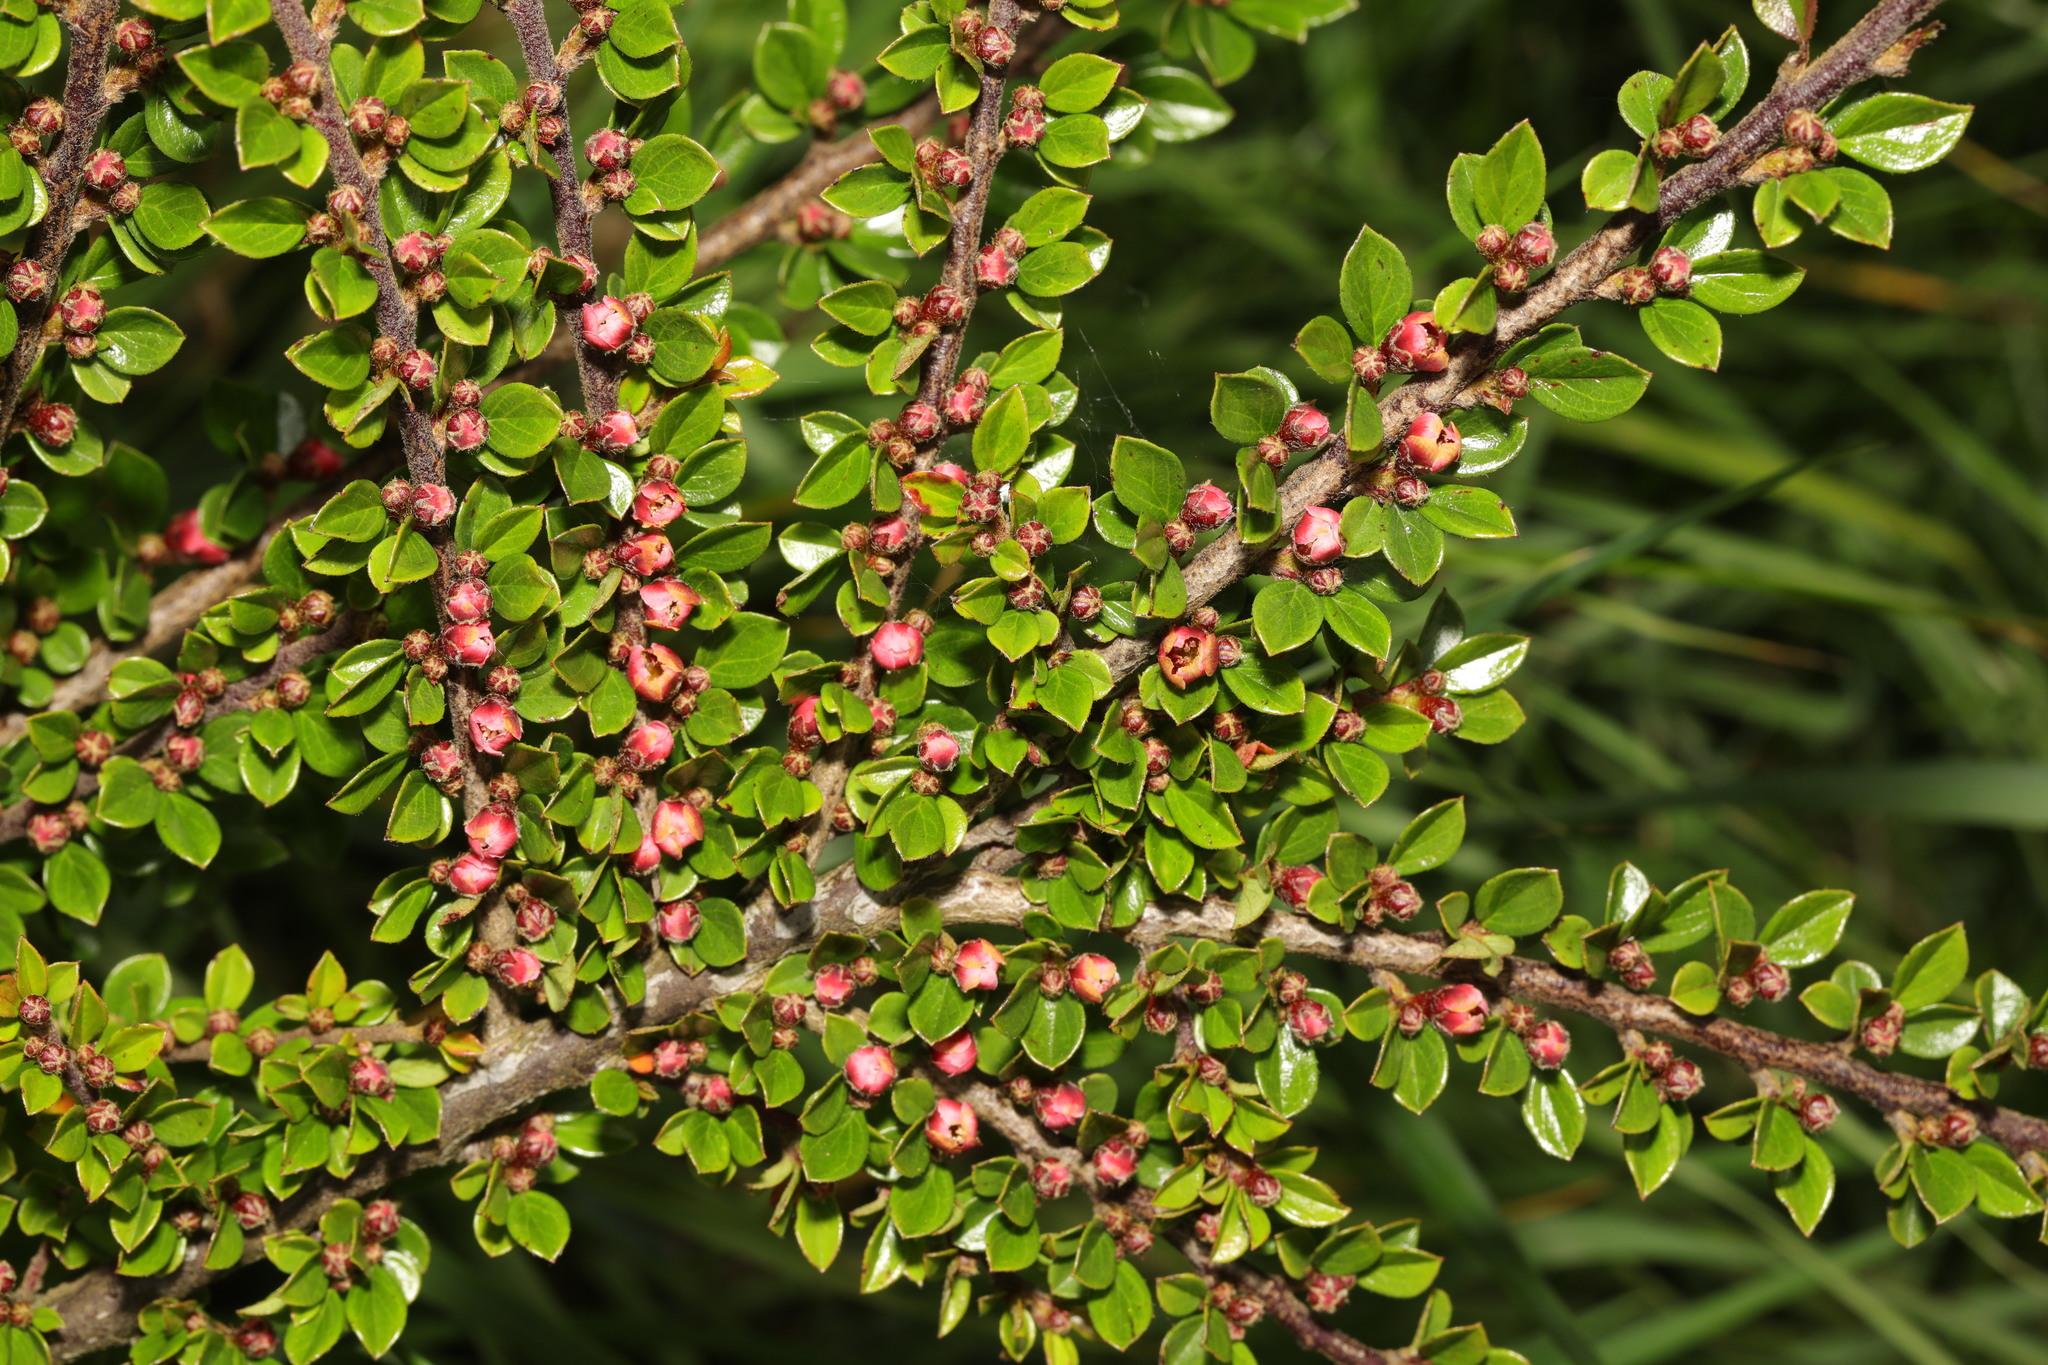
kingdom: Plantae
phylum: Tracheophyta
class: Magnoliopsida
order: Rosales
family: Rosaceae
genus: Cotoneaster
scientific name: Cotoneaster horizontalis
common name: Wall cotoneaster
